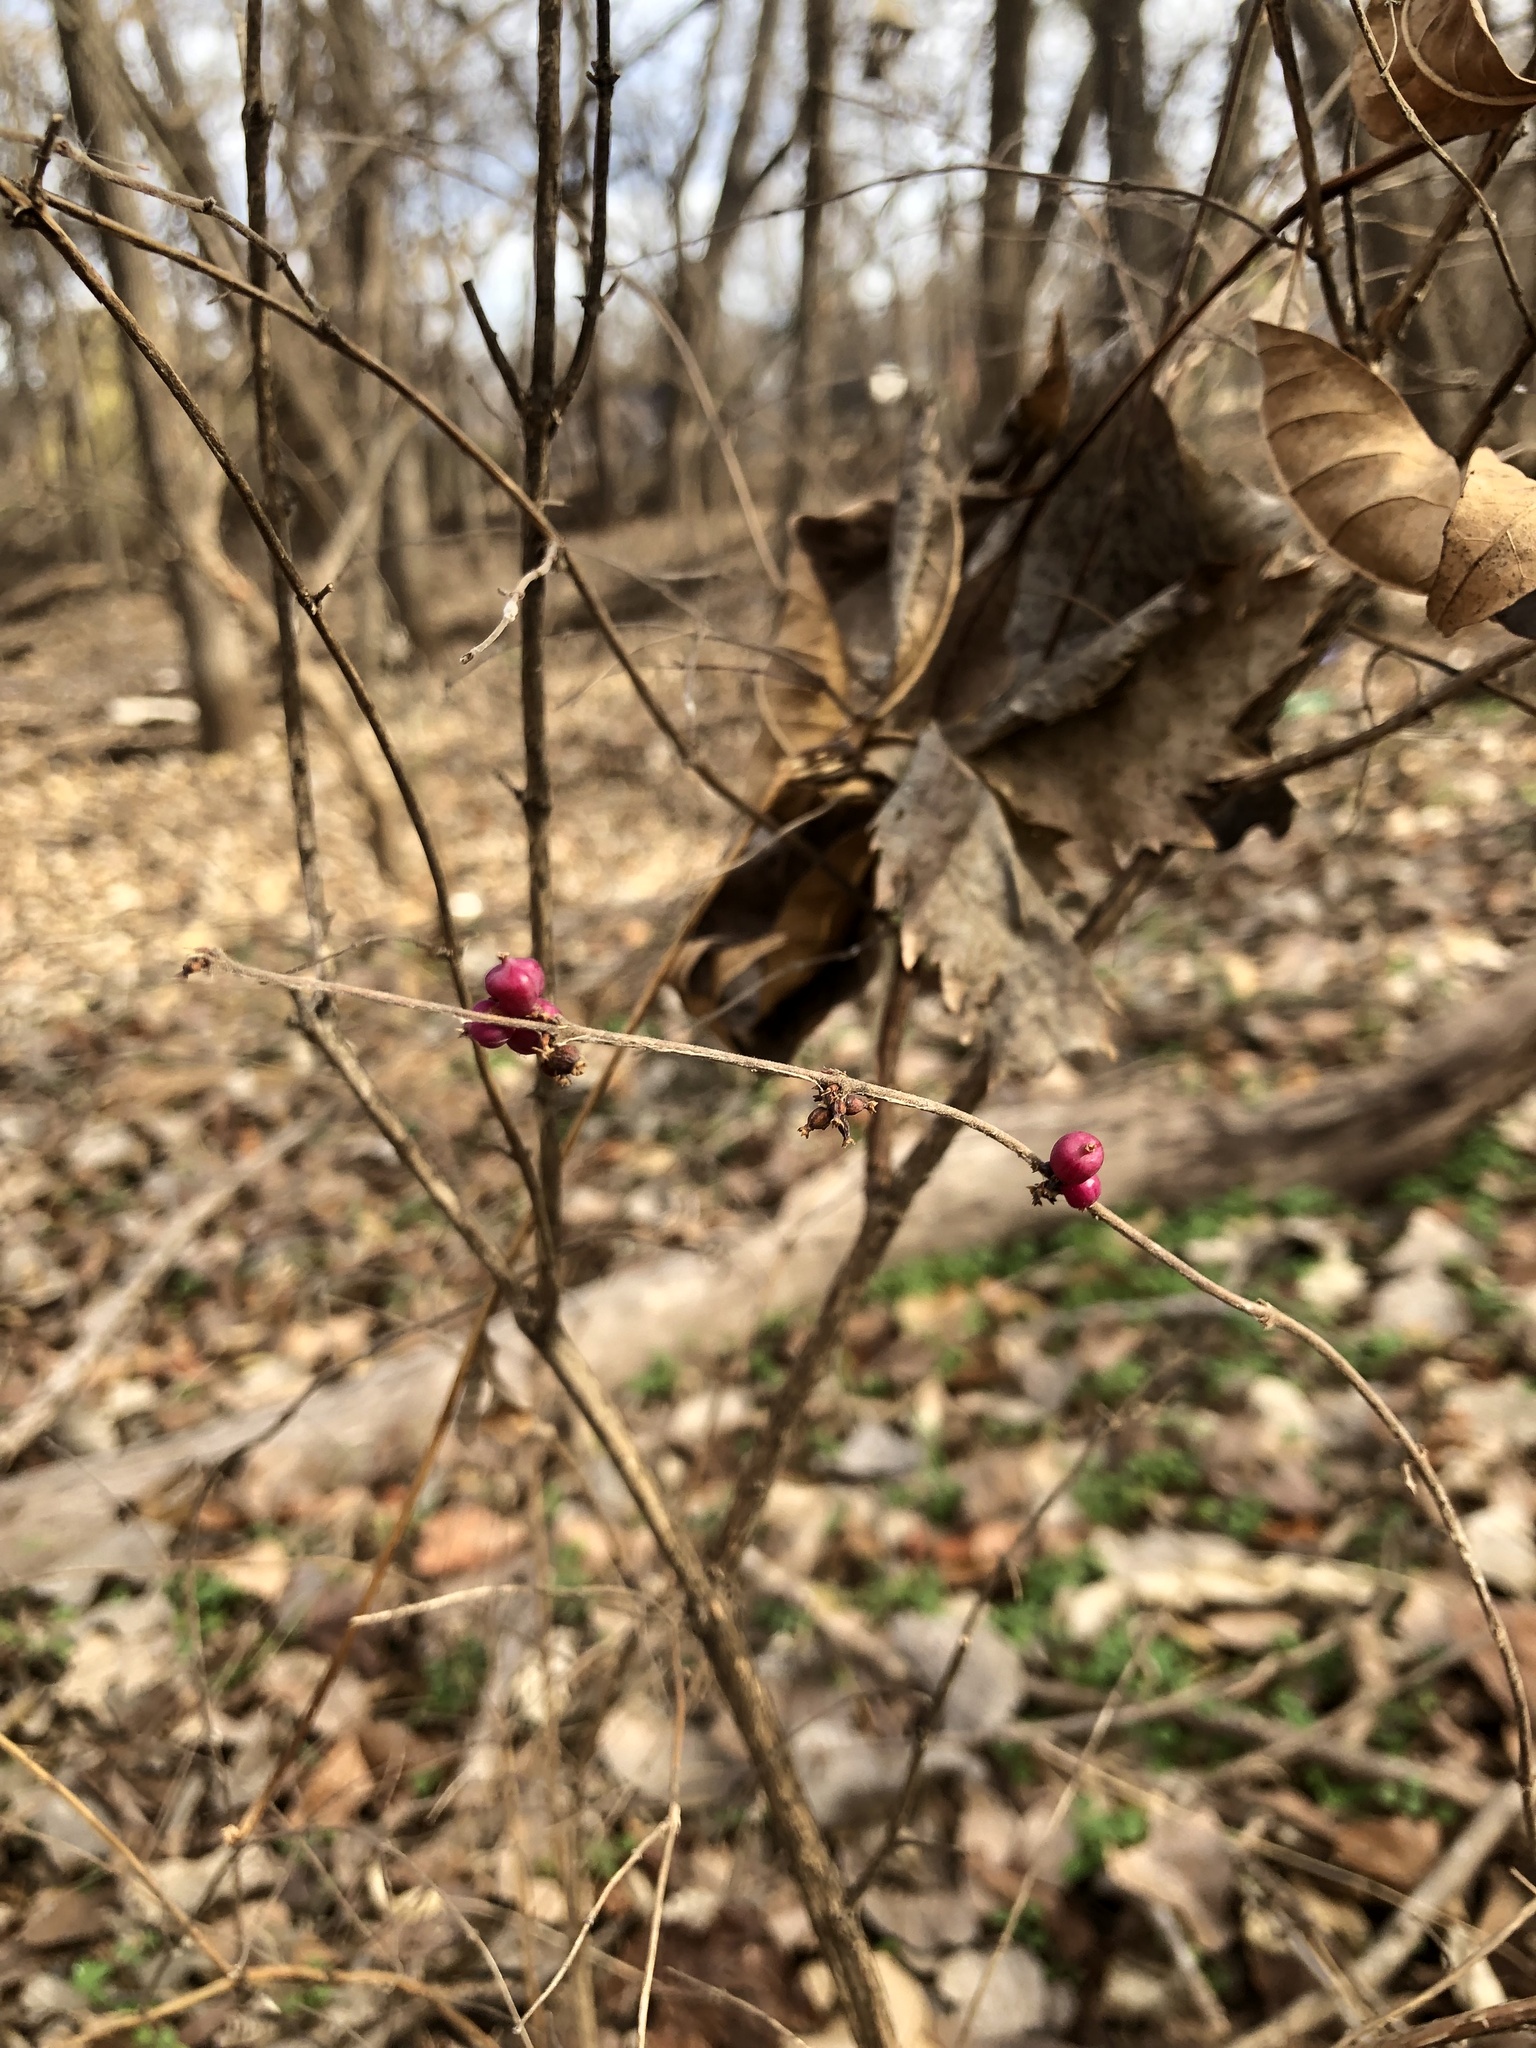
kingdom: Plantae
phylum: Tracheophyta
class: Magnoliopsida
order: Dipsacales
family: Caprifoliaceae
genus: Symphoricarpos
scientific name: Symphoricarpos orbiculatus
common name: Coralberry
